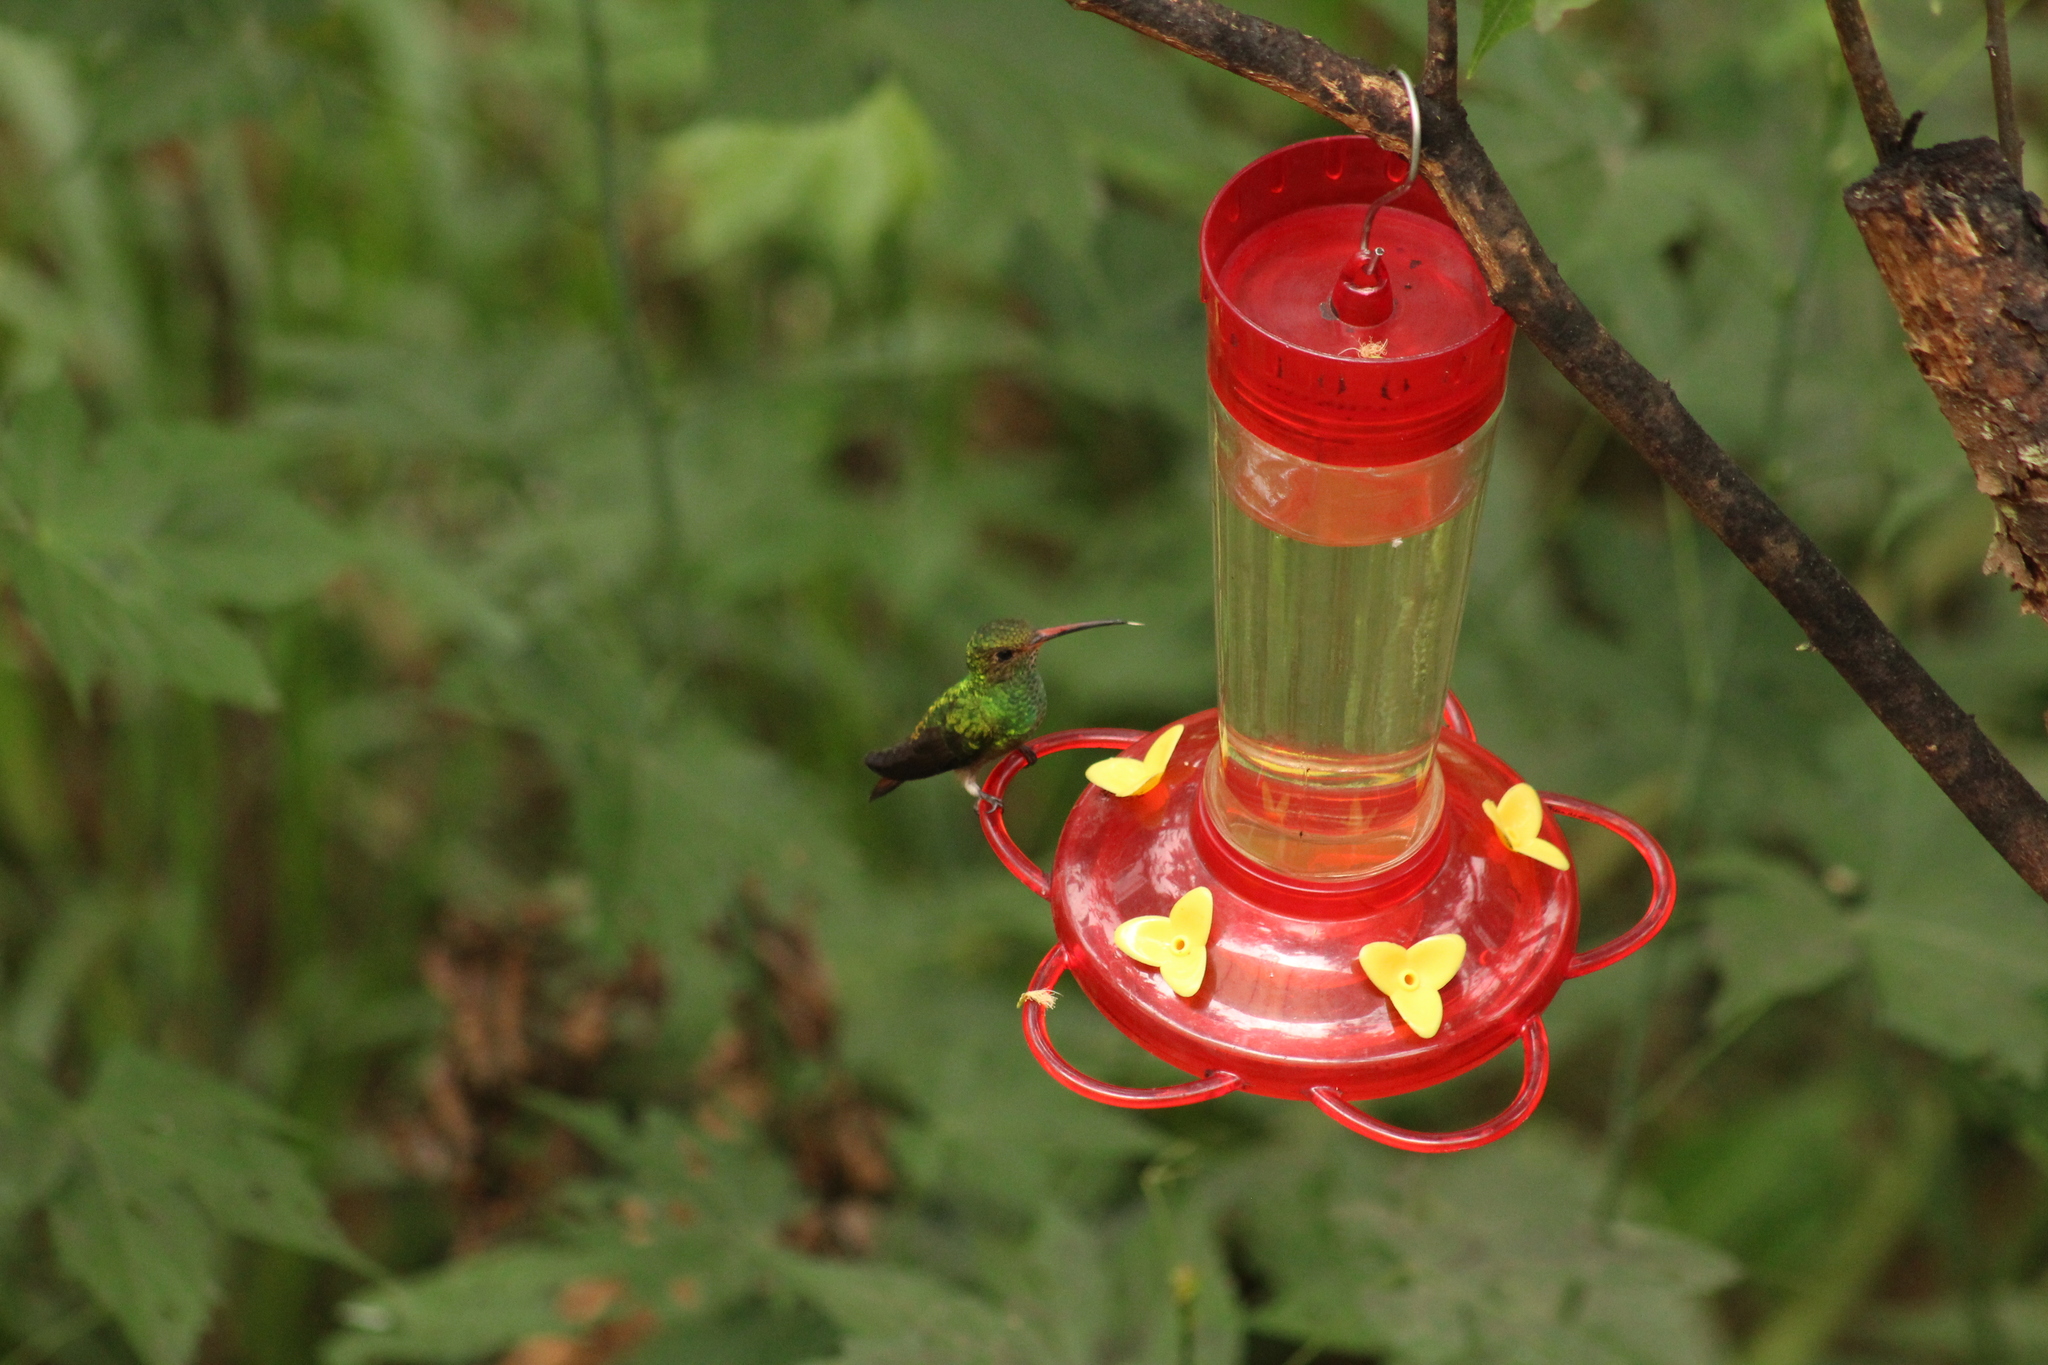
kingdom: Animalia
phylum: Chordata
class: Aves
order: Apodiformes
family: Trochilidae
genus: Amazilia
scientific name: Amazilia tzacatl
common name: Rufous-tailed hummingbird
